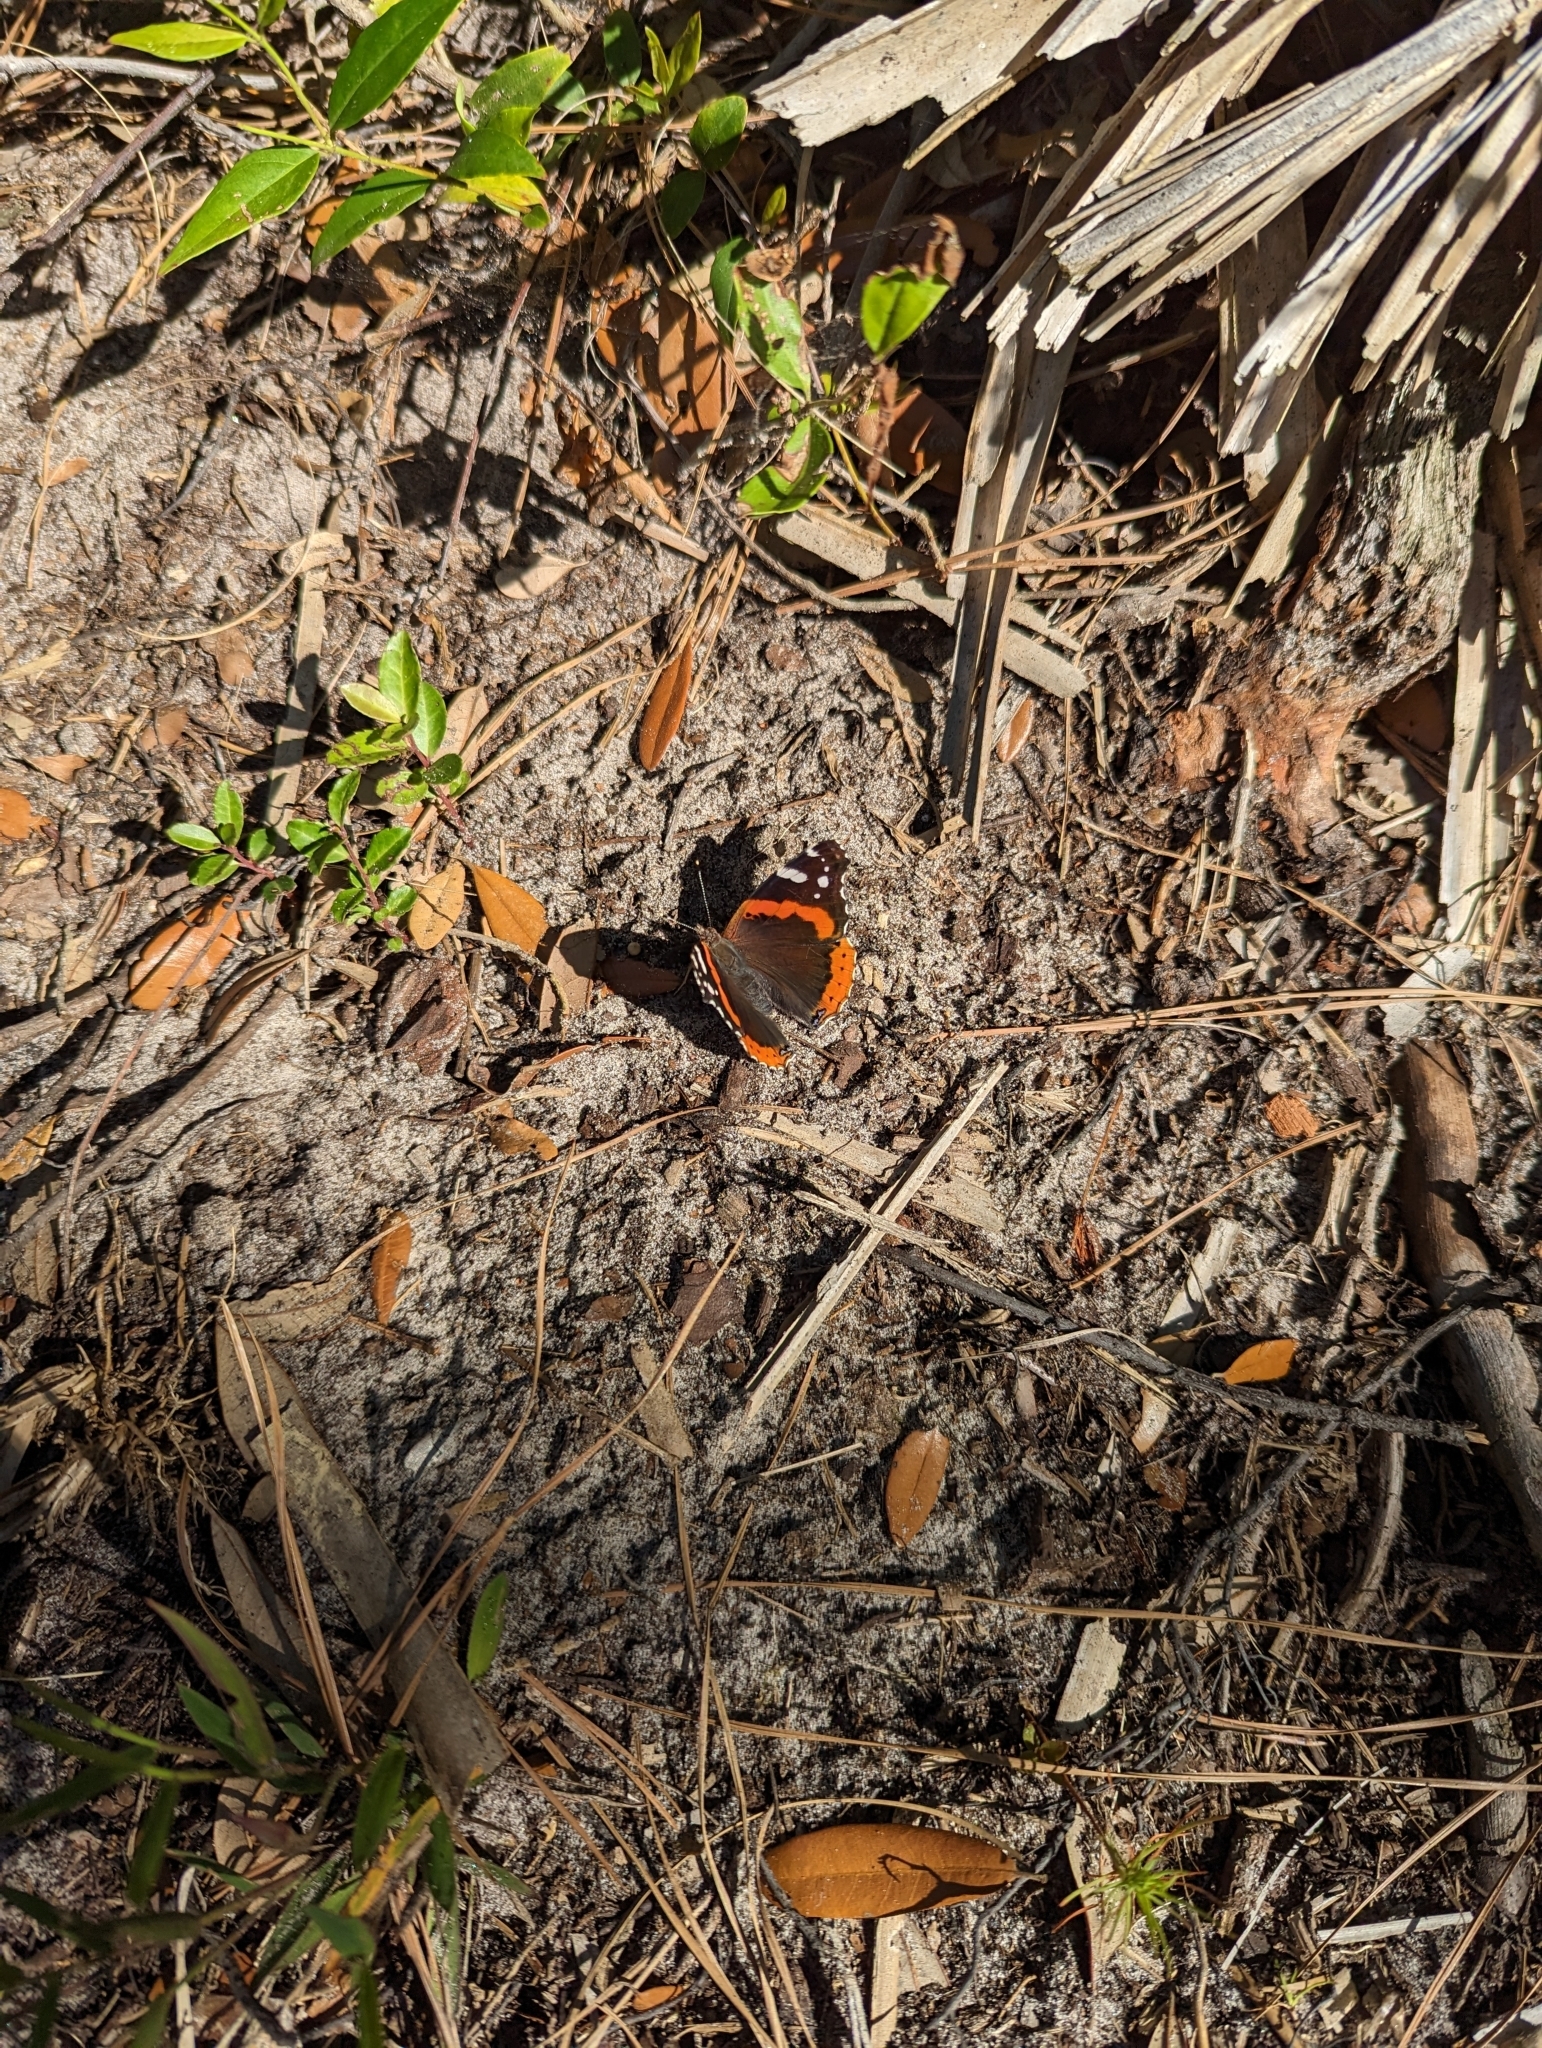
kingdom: Animalia
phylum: Arthropoda
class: Insecta
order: Lepidoptera
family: Nymphalidae
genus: Vanessa
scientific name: Vanessa atalanta
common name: Red admiral
